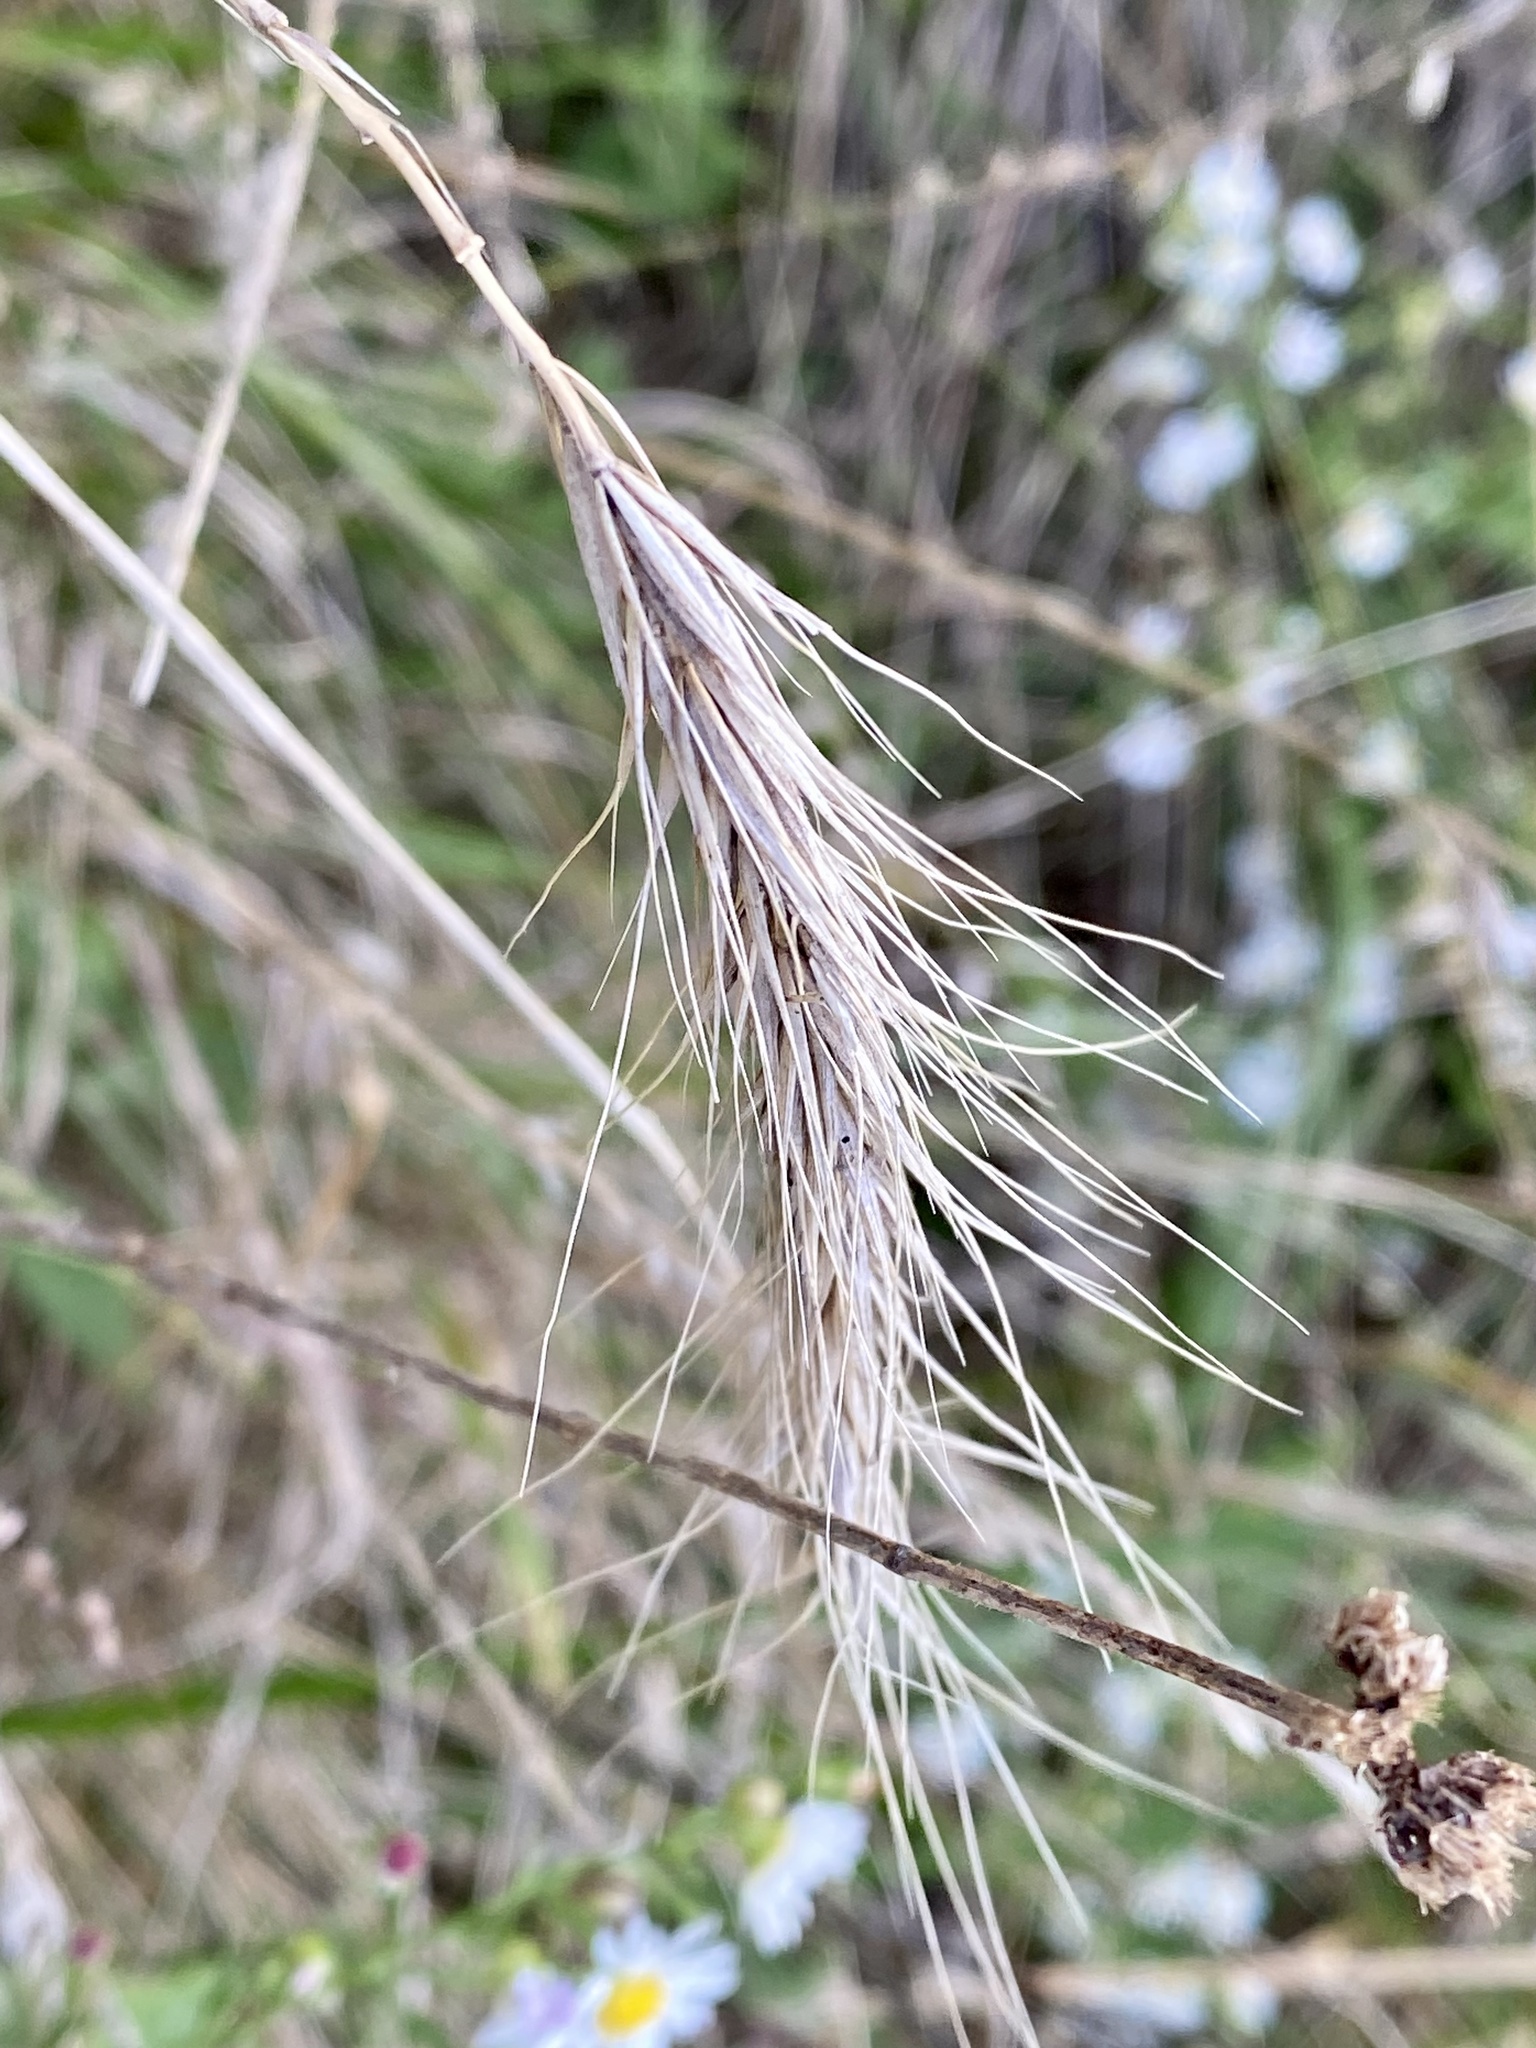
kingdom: Plantae
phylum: Tracheophyta
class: Liliopsida
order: Poales
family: Poaceae
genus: Elymus
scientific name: Elymus canadensis
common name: Canada wild rye
